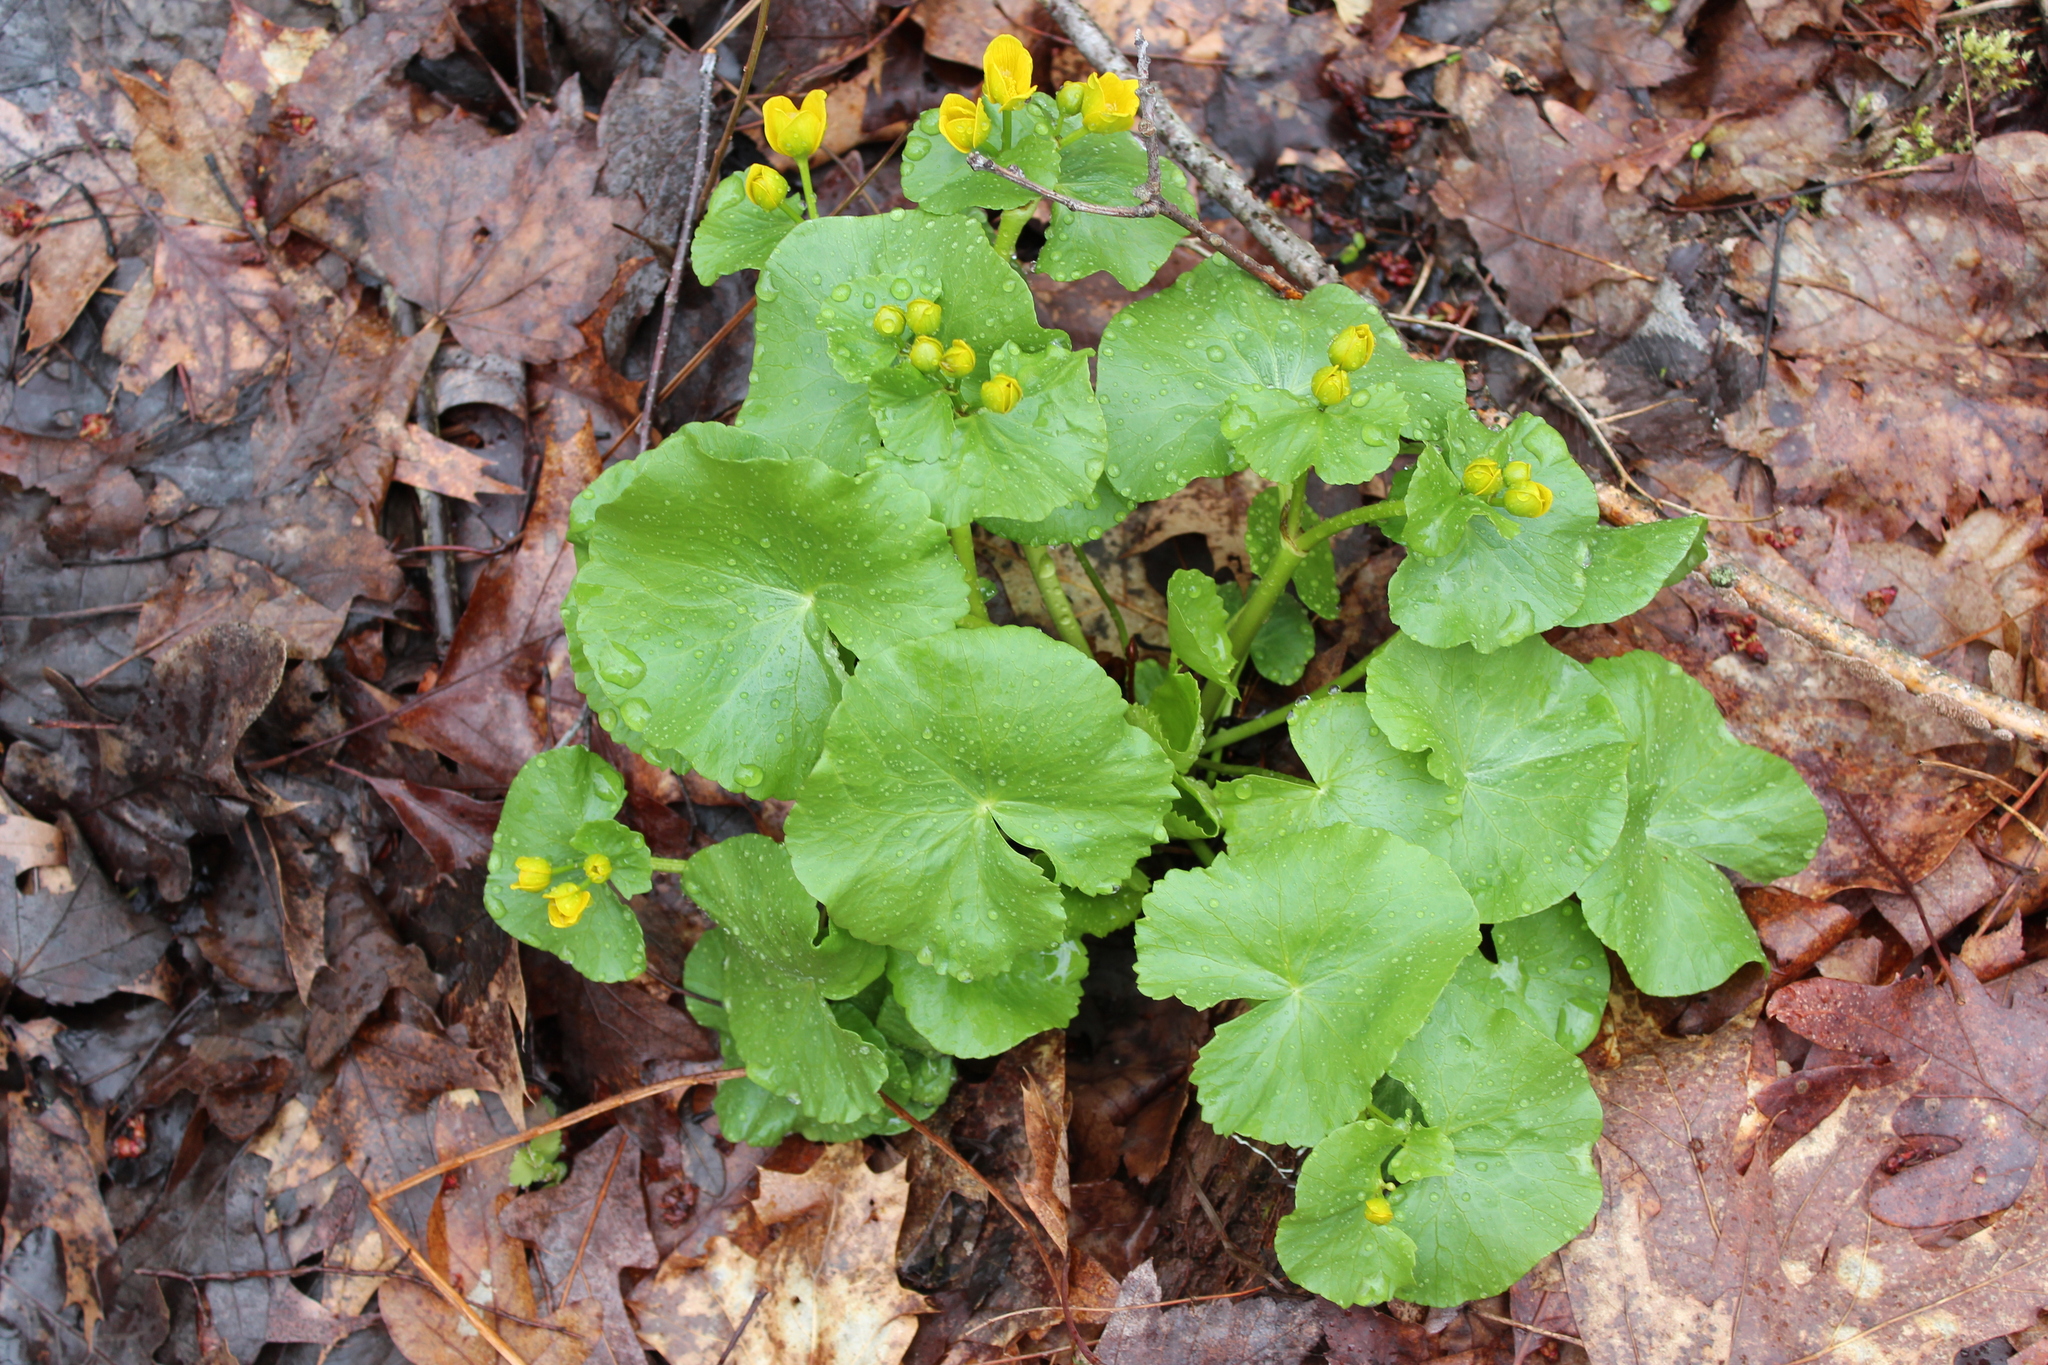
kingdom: Plantae
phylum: Tracheophyta
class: Magnoliopsida
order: Ranunculales
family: Ranunculaceae
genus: Caltha
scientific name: Caltha palustris
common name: Marsh marigold
